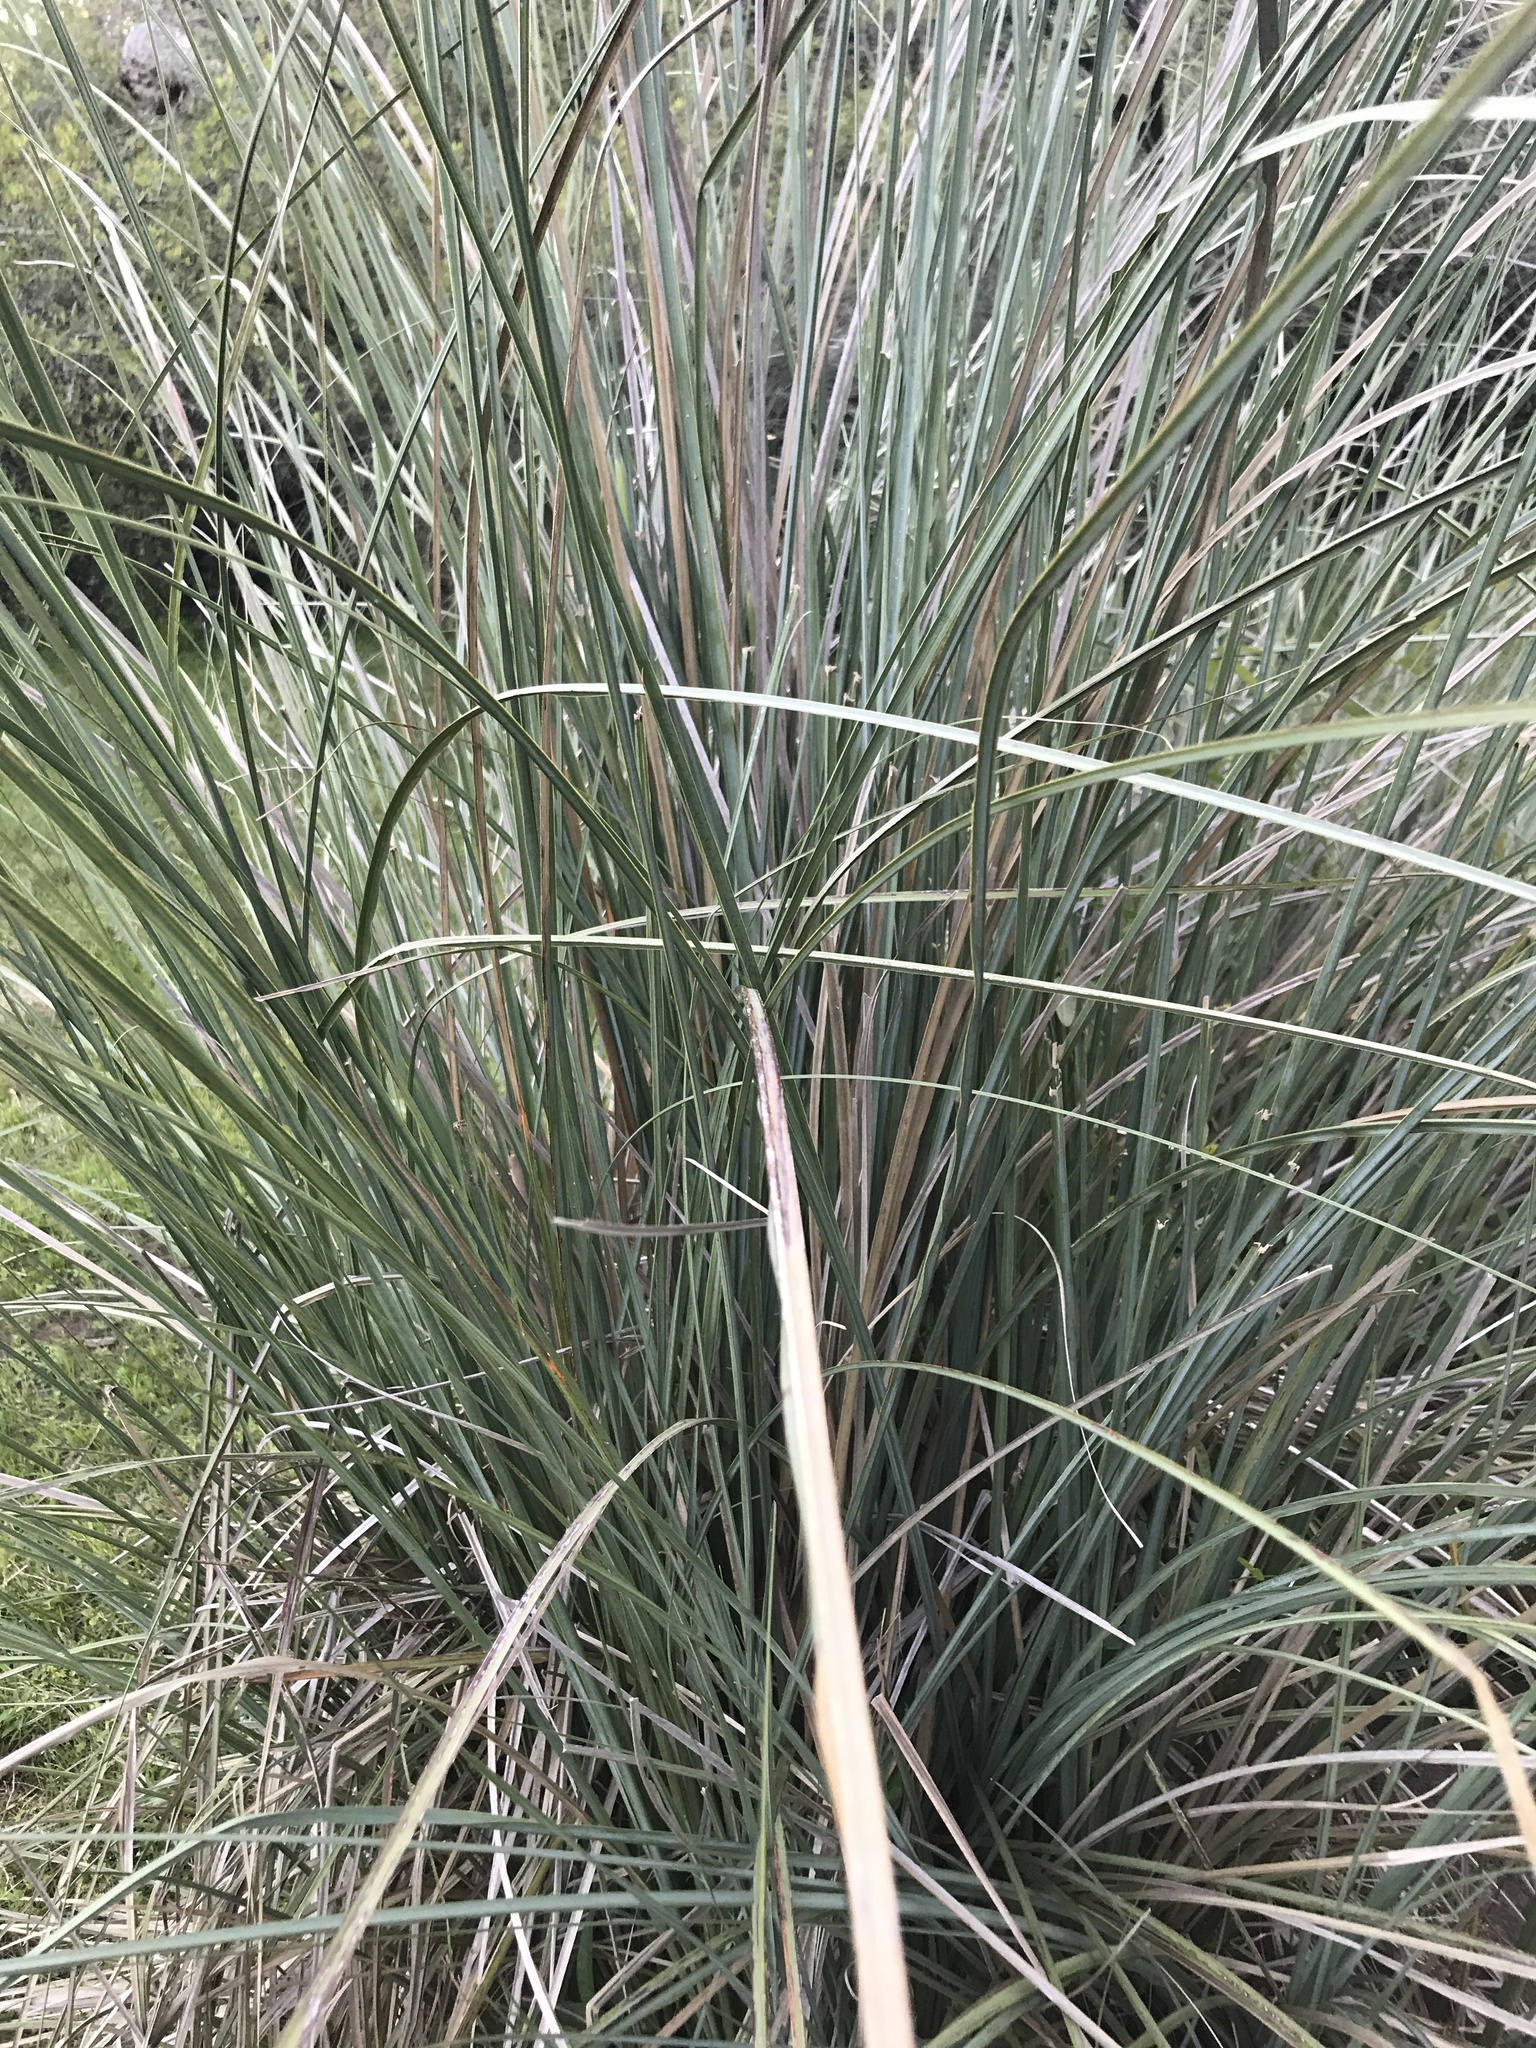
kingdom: Plantae
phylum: Tracheophyta
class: Liliopsida
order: Poales
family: Poaceae
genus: Coleataenia
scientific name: Coleataenia prionitis
